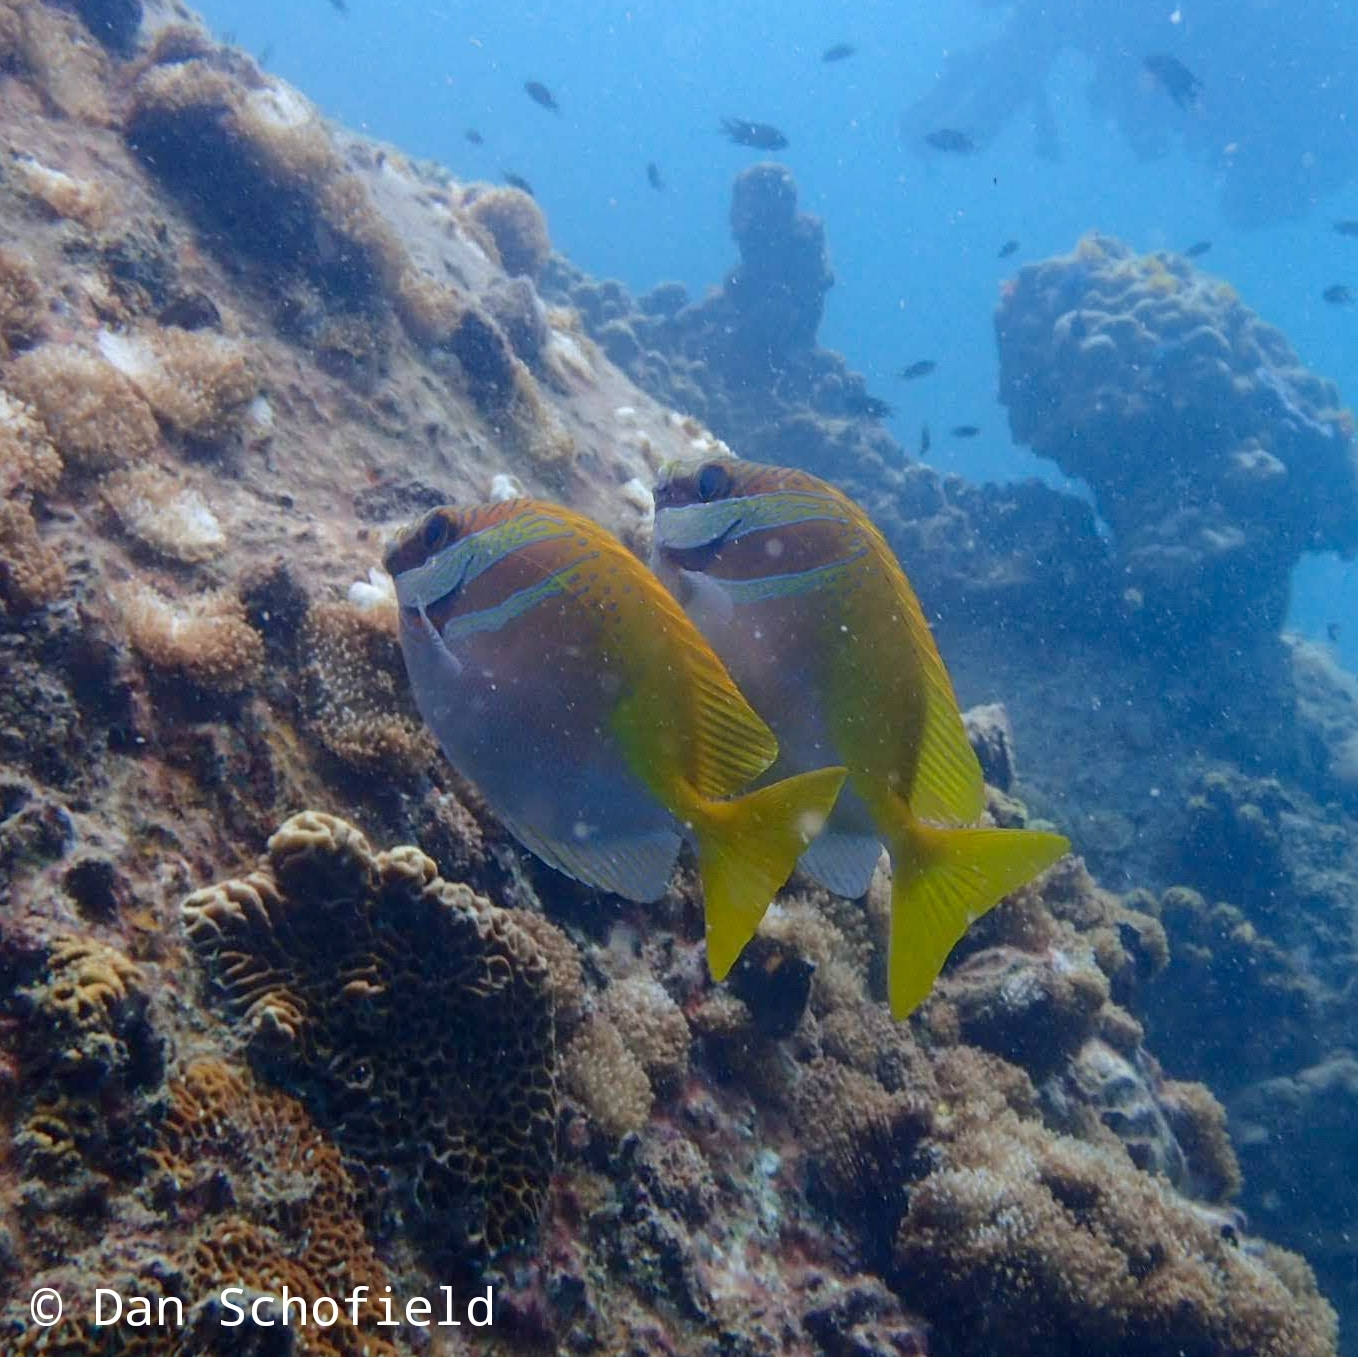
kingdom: Animalia
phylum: Chordata
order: Perciformes
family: Siganidae
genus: Siganus
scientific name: Siganus virgatus
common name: Barhead spinefoot
